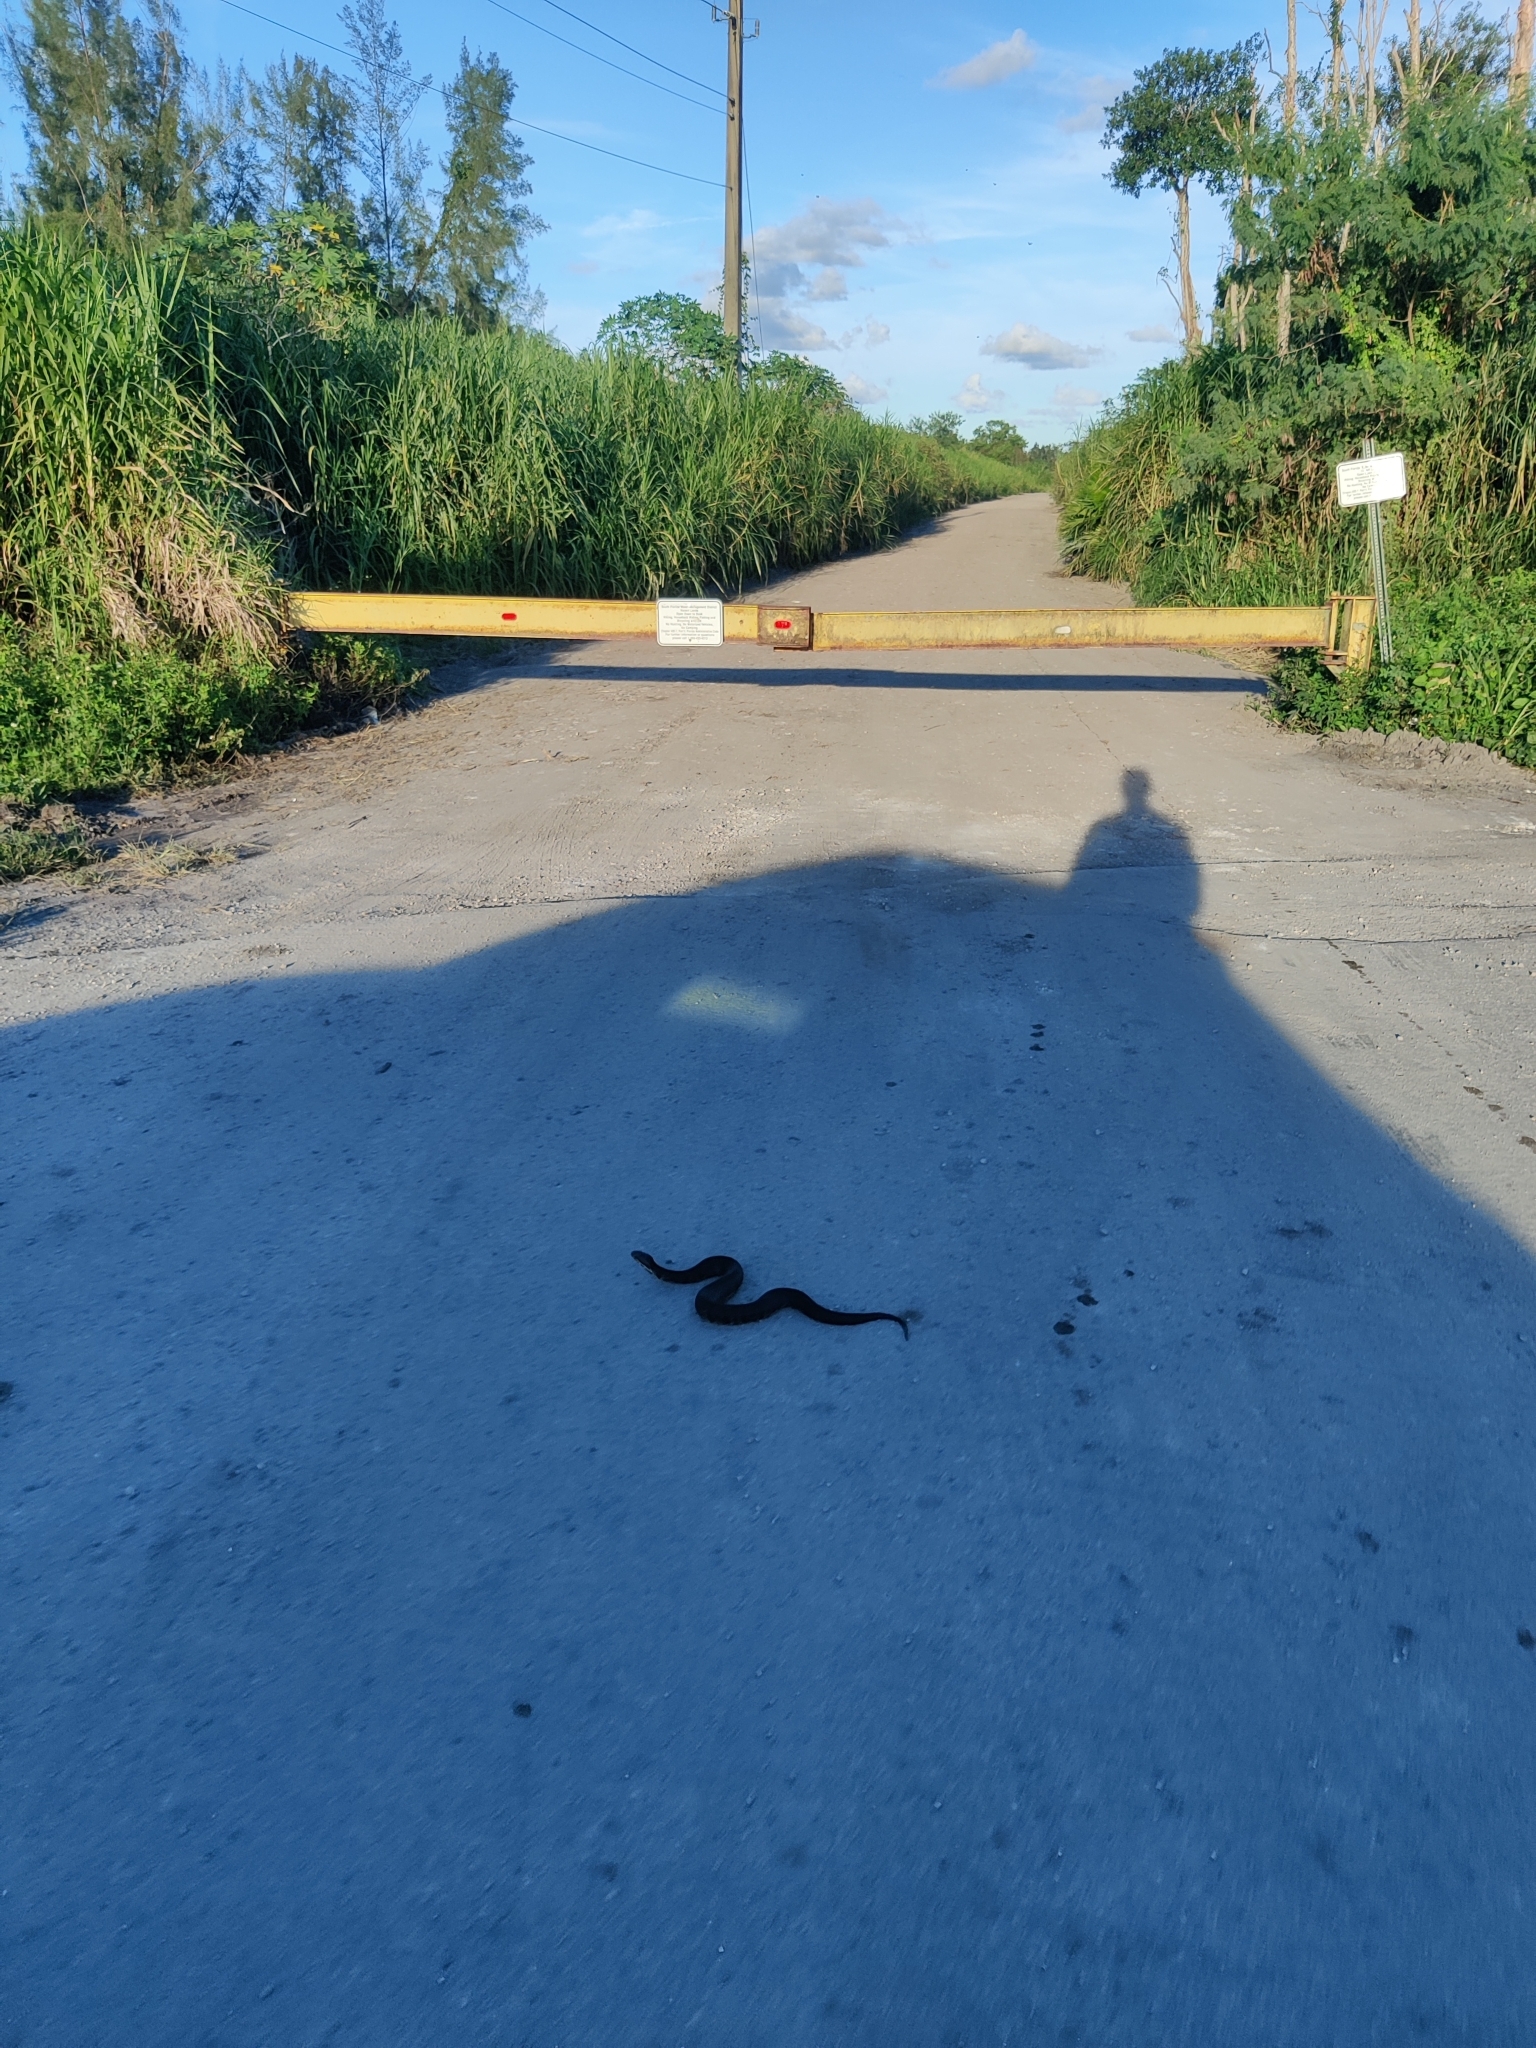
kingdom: Animalia
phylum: Chordata
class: Squamata
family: Viperidae
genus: Agkistrodon
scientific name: Agkistrodon conanti
